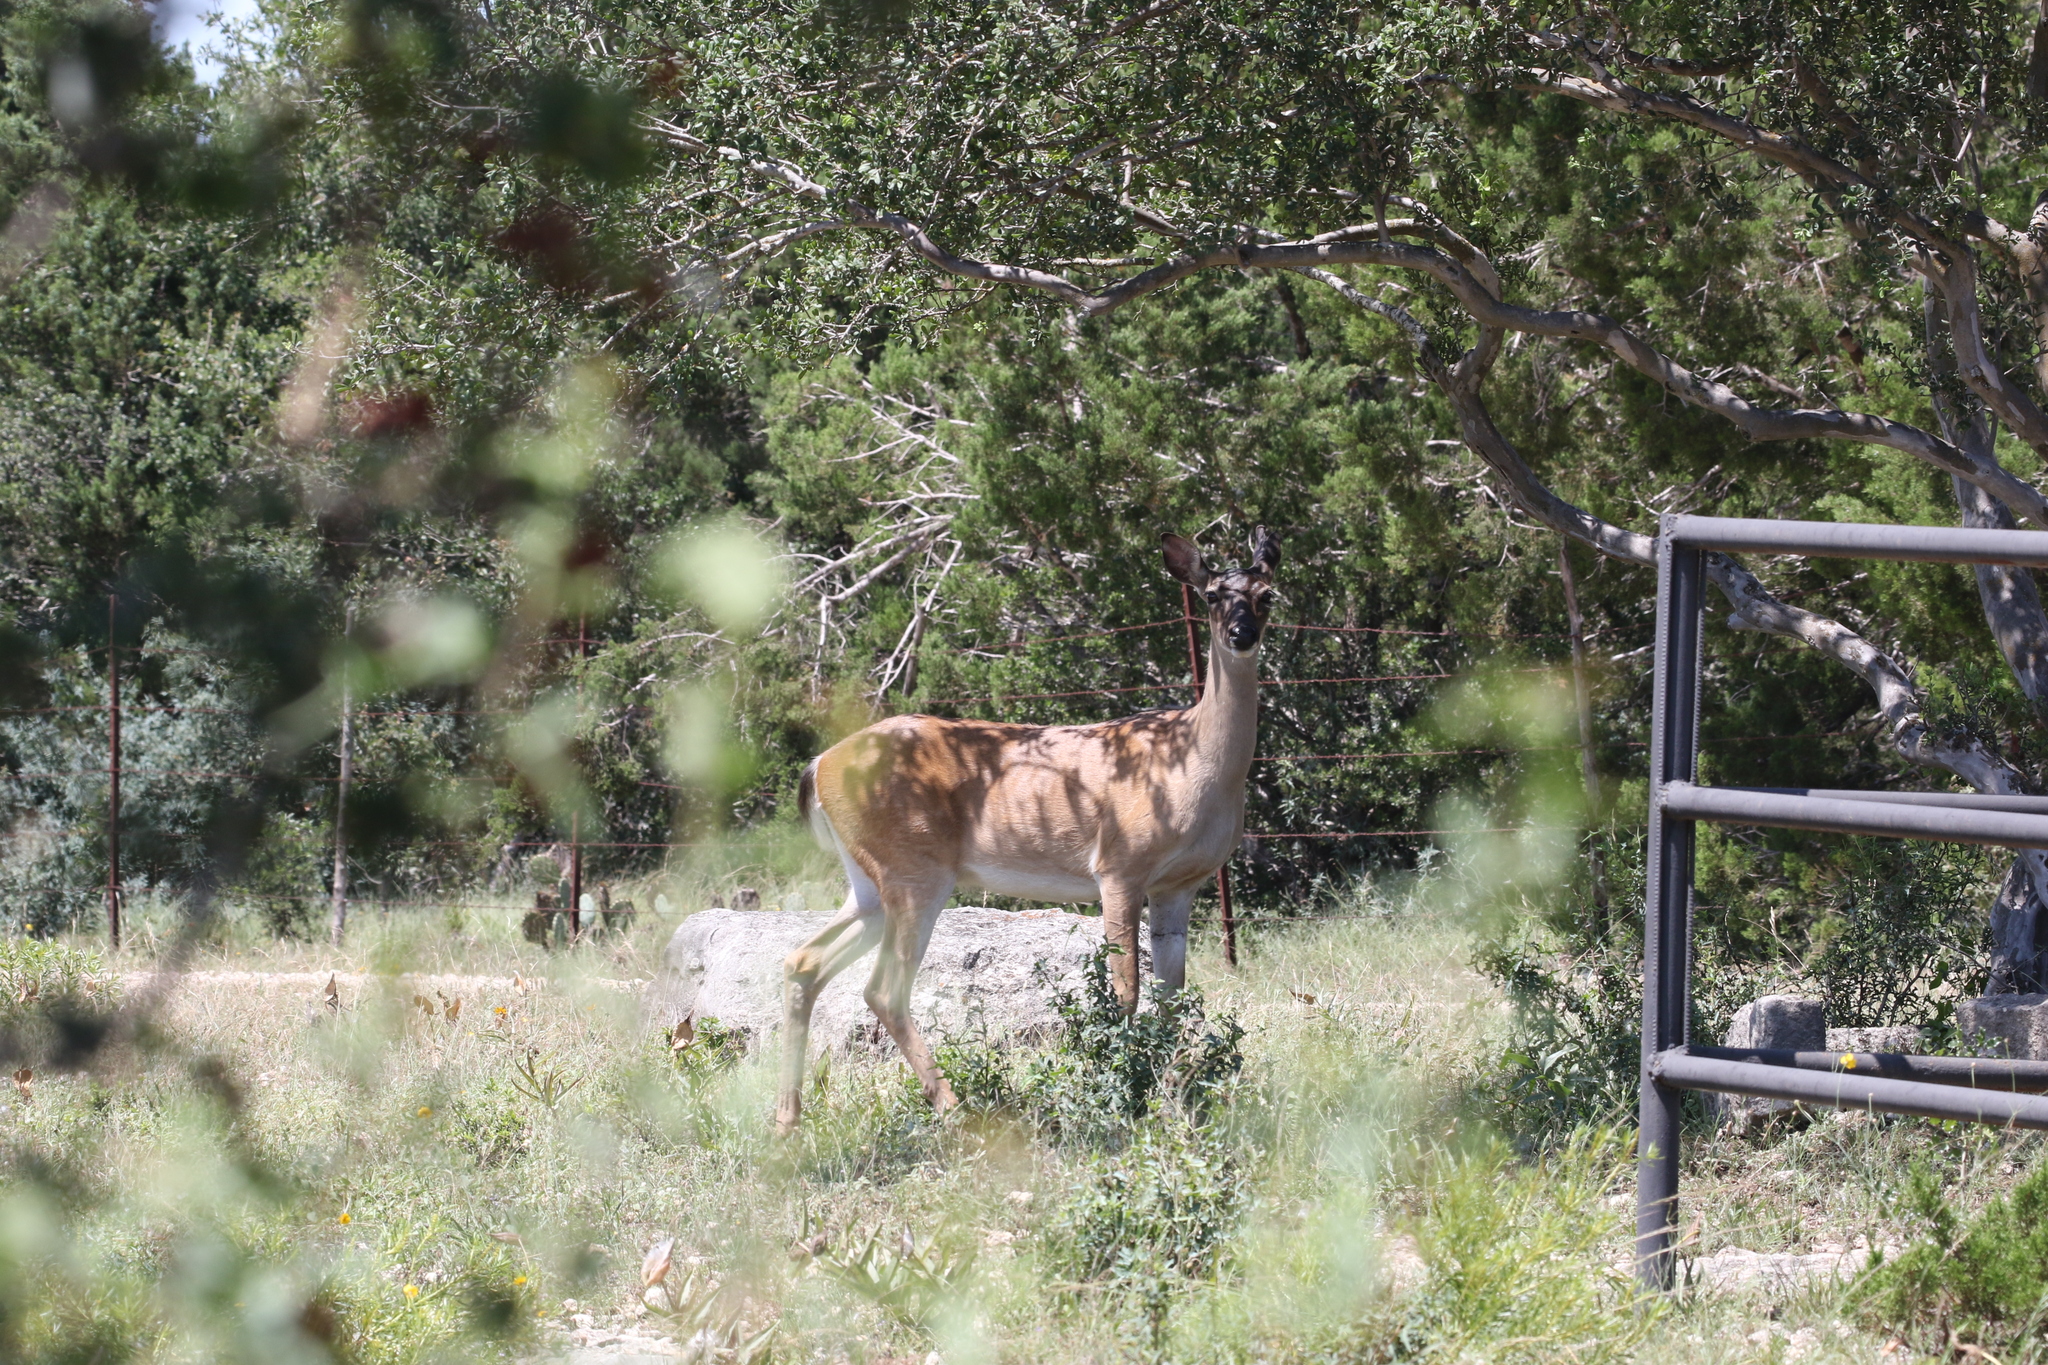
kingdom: Animalia
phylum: Chordata
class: Mammalia
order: Artiodactyla
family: Cervidae
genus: Odocoileus
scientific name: Odocoileus virginianus
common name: White-tailed deer
